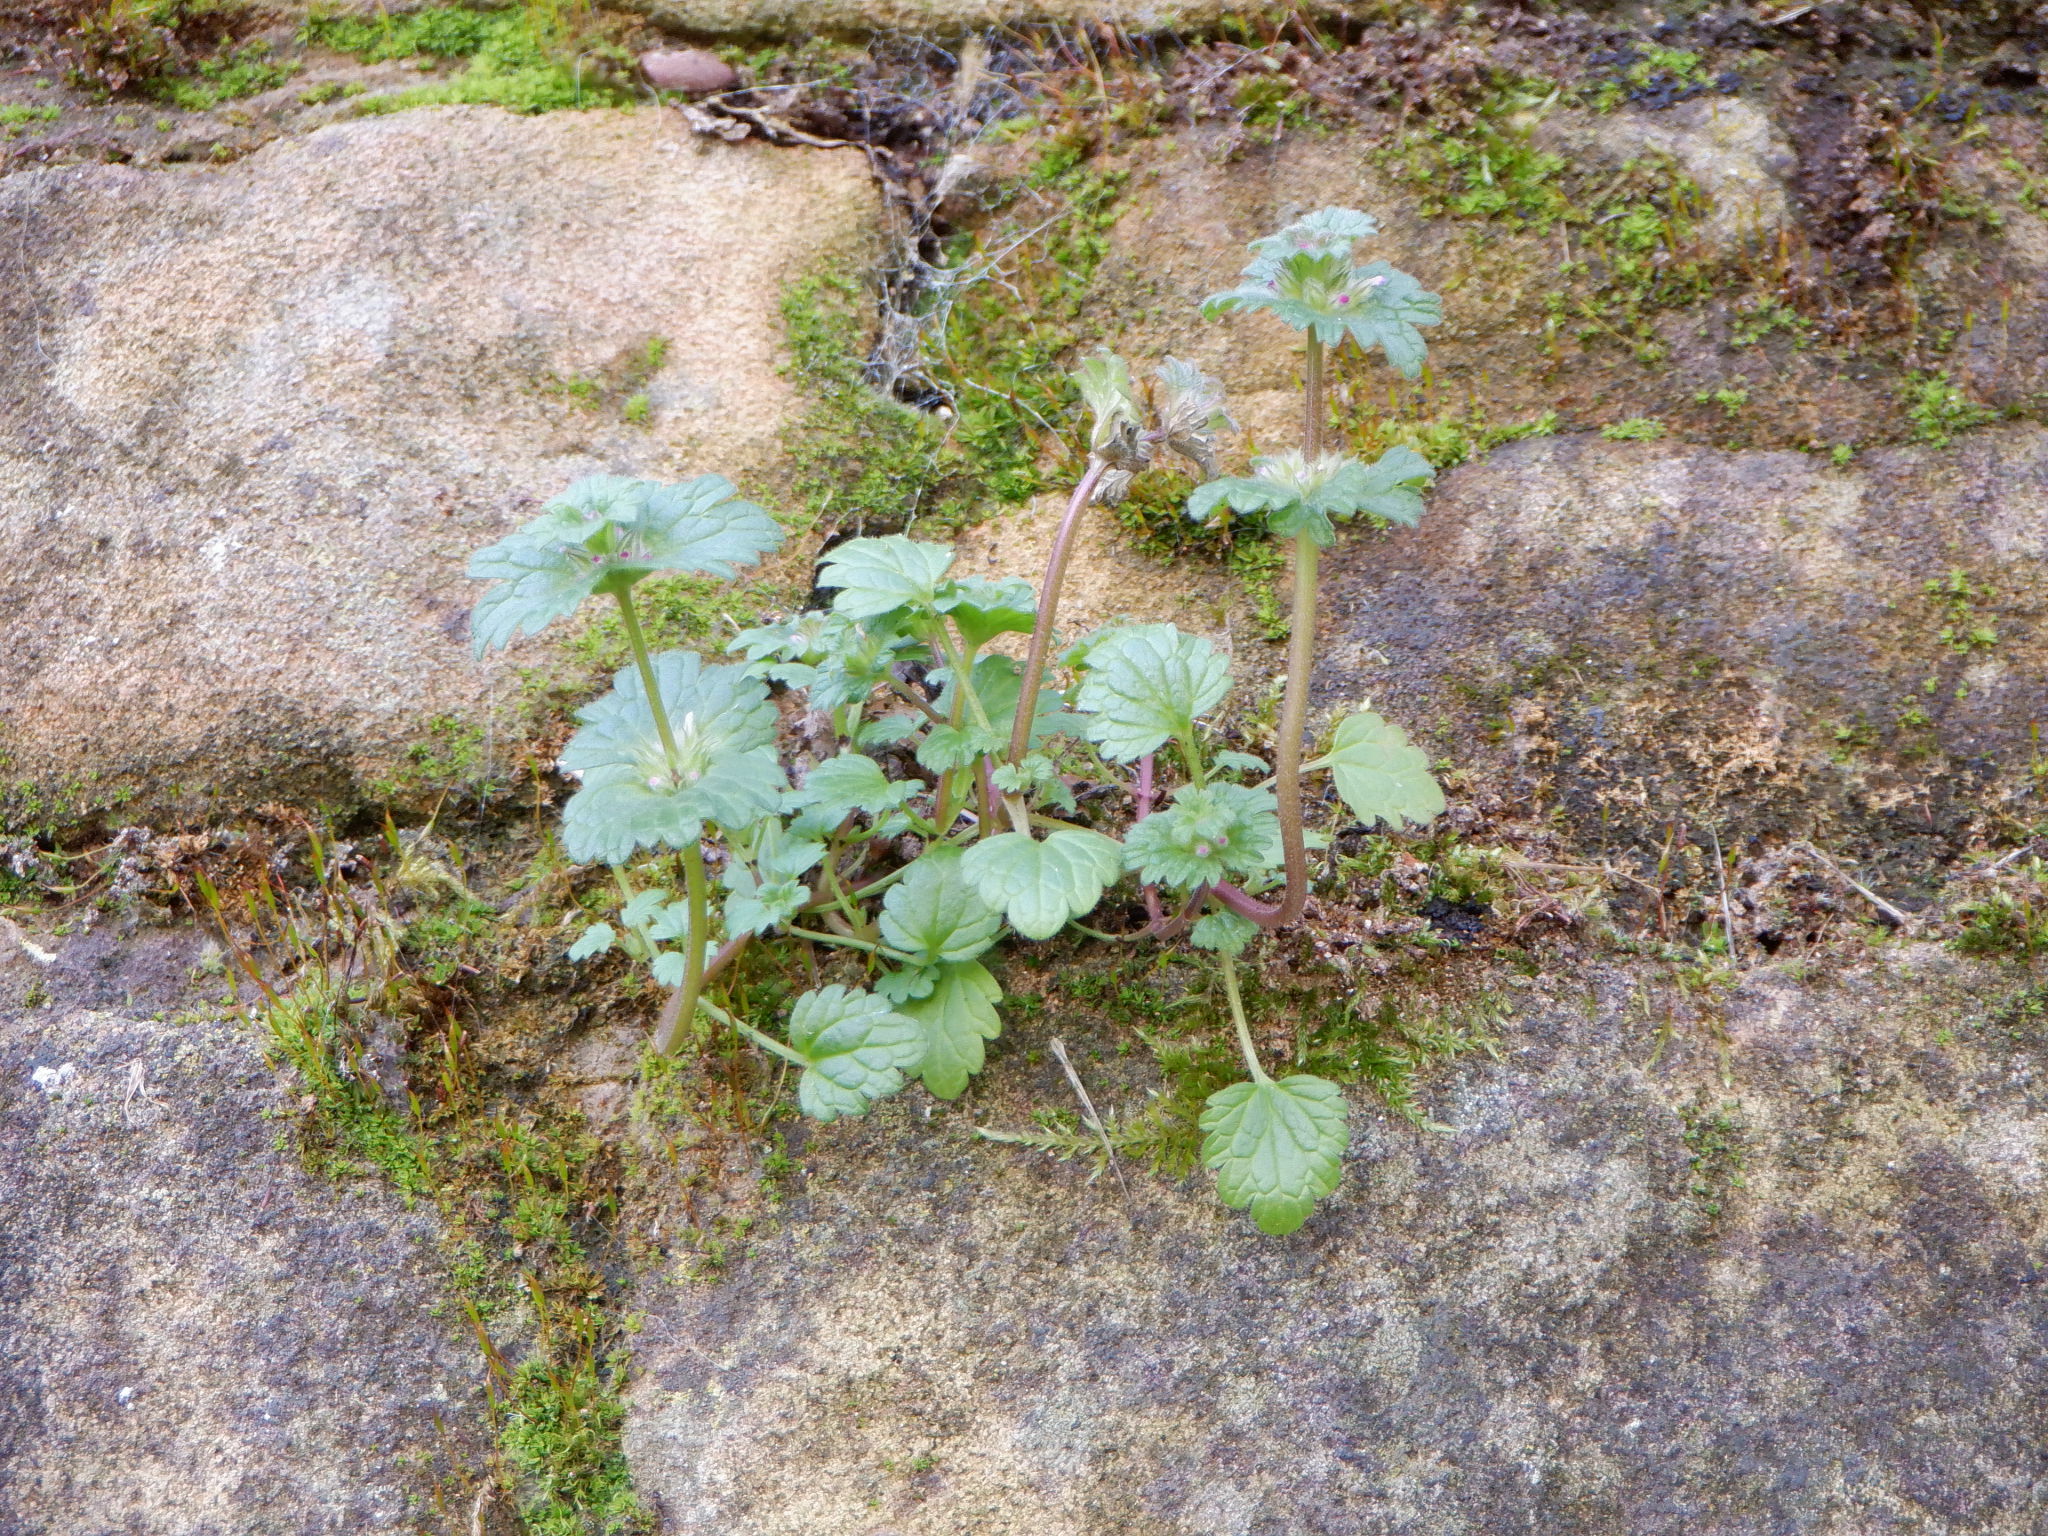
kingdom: Plantae
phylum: Tracheophyta
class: Magnoliopsida
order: Lamiales
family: Lamiaceae
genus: Lamium
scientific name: Lamium amplexicaule
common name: Henbit dead-nettle
